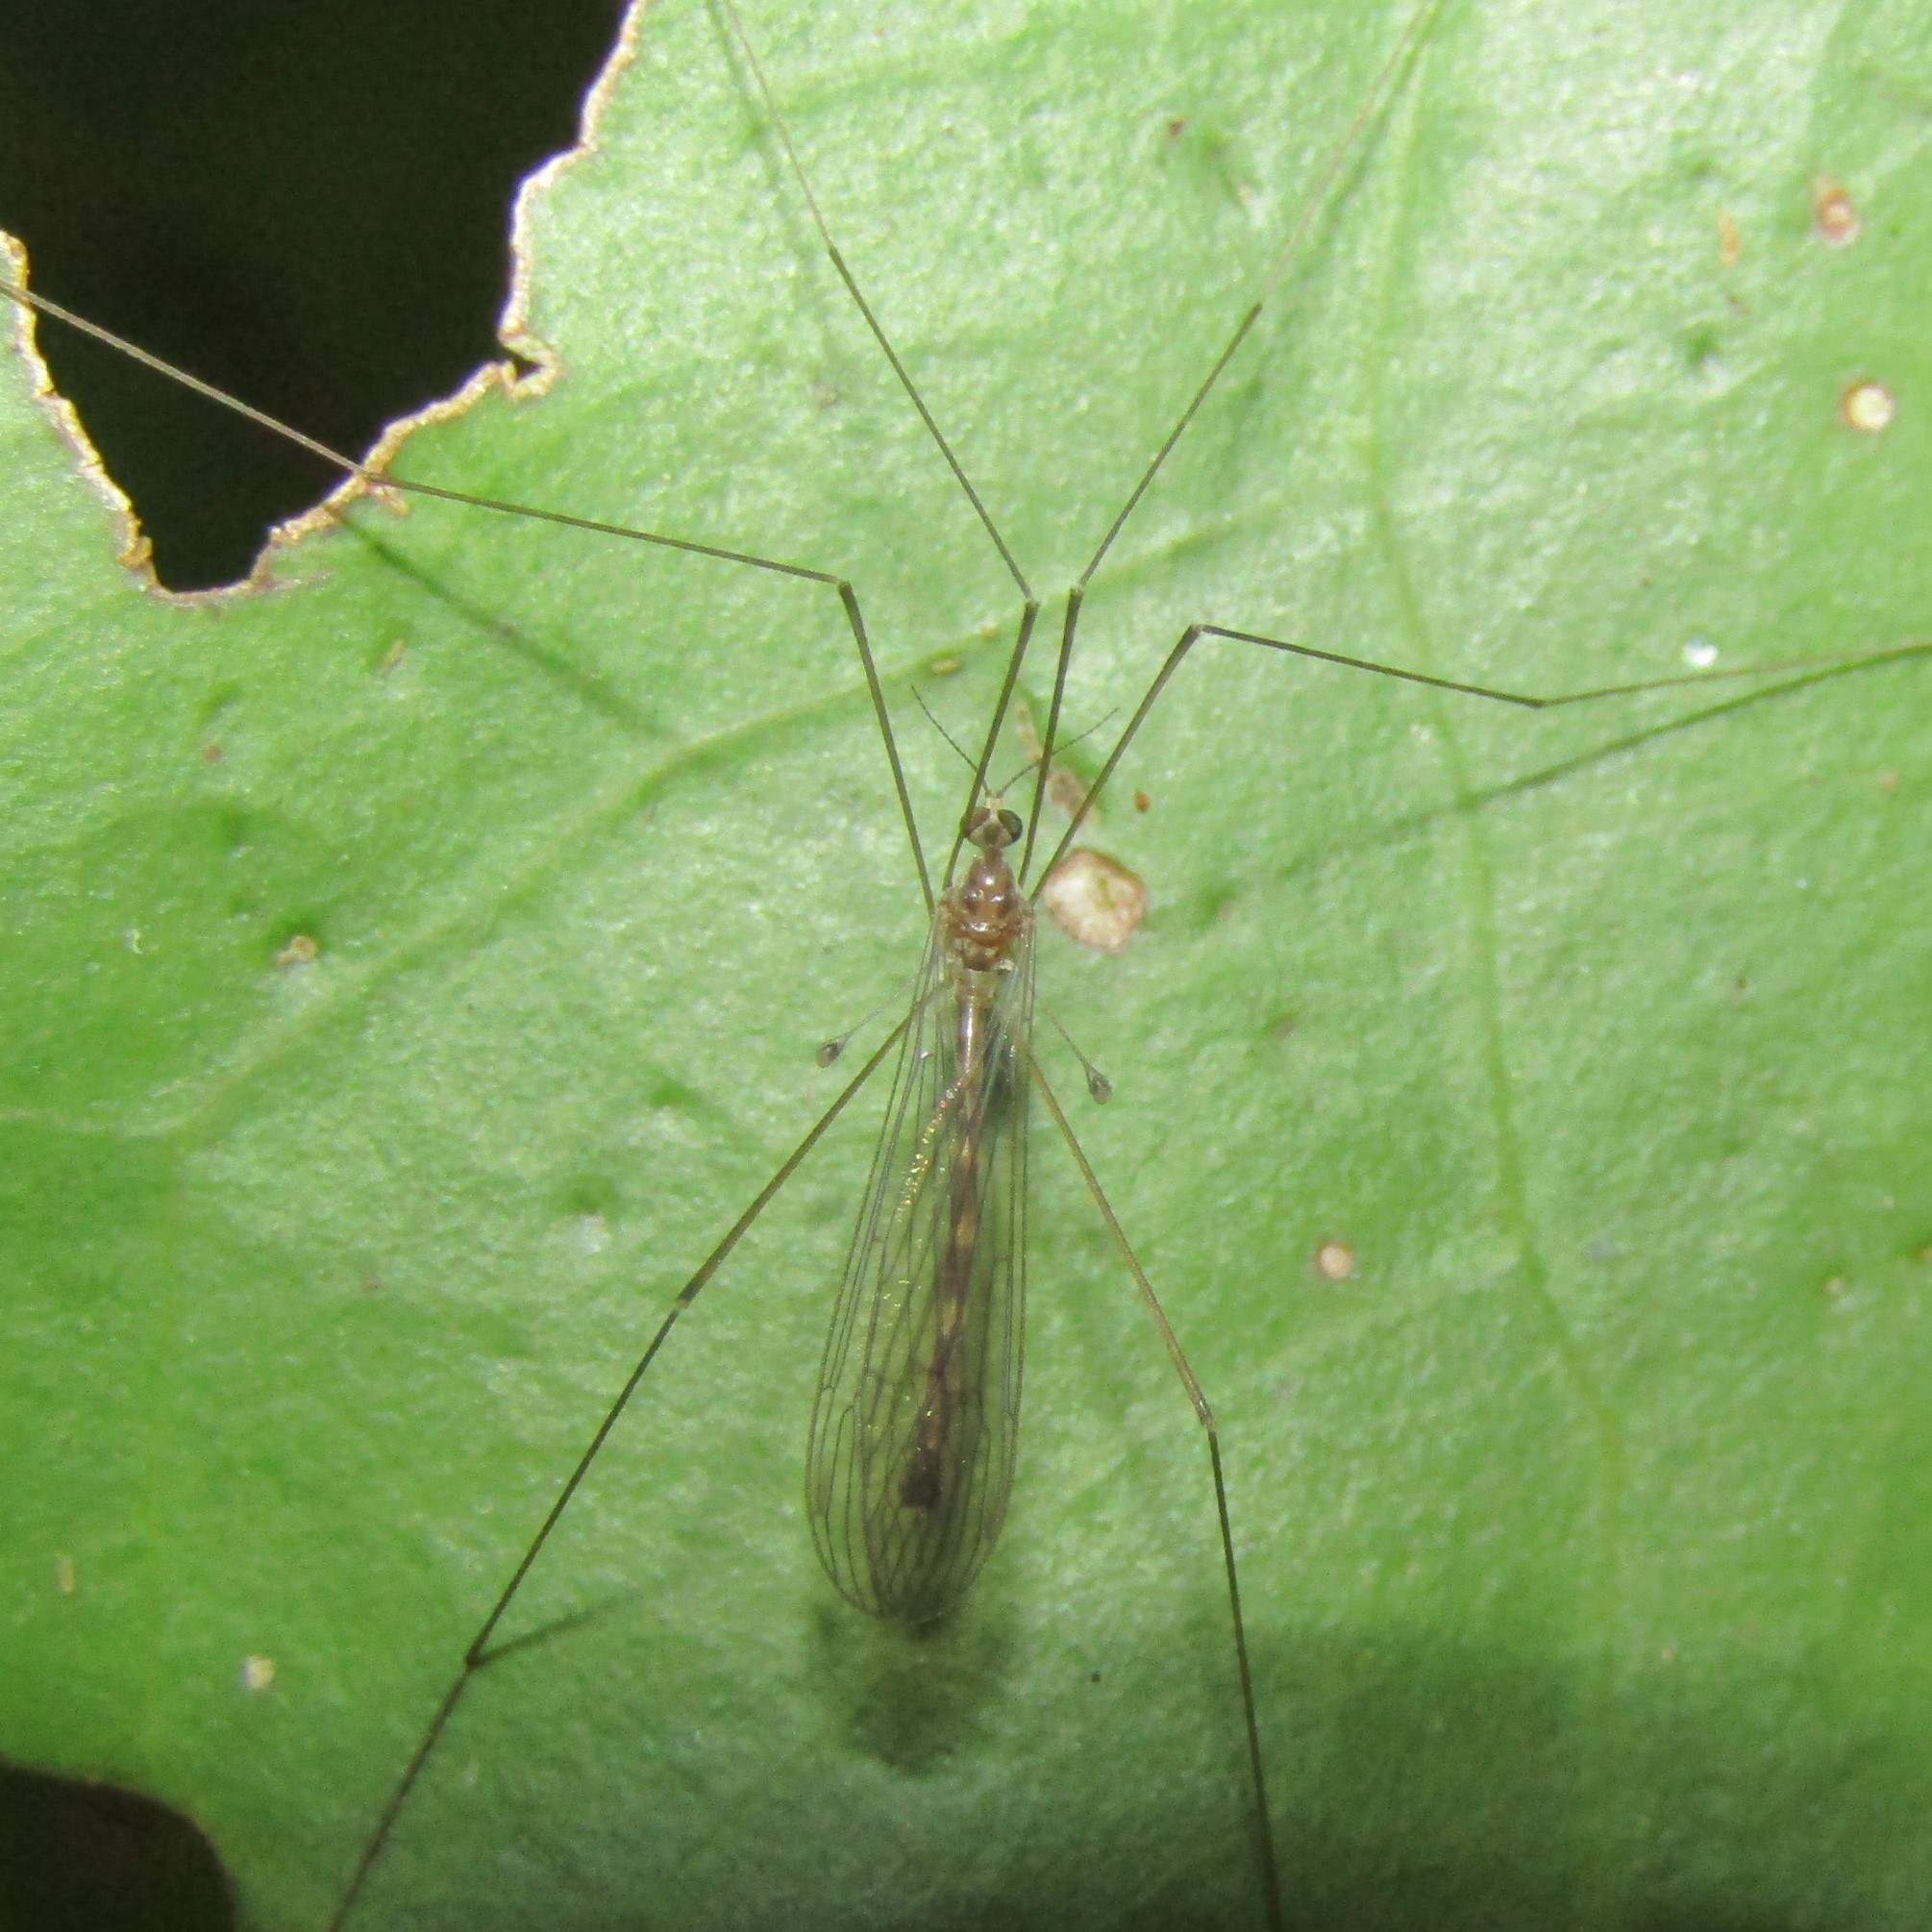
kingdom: Animalia
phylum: Arthropoda
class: Insecta
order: Diptera
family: Limoniidae
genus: Limnophilella
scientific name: Limnophilella delicatula
